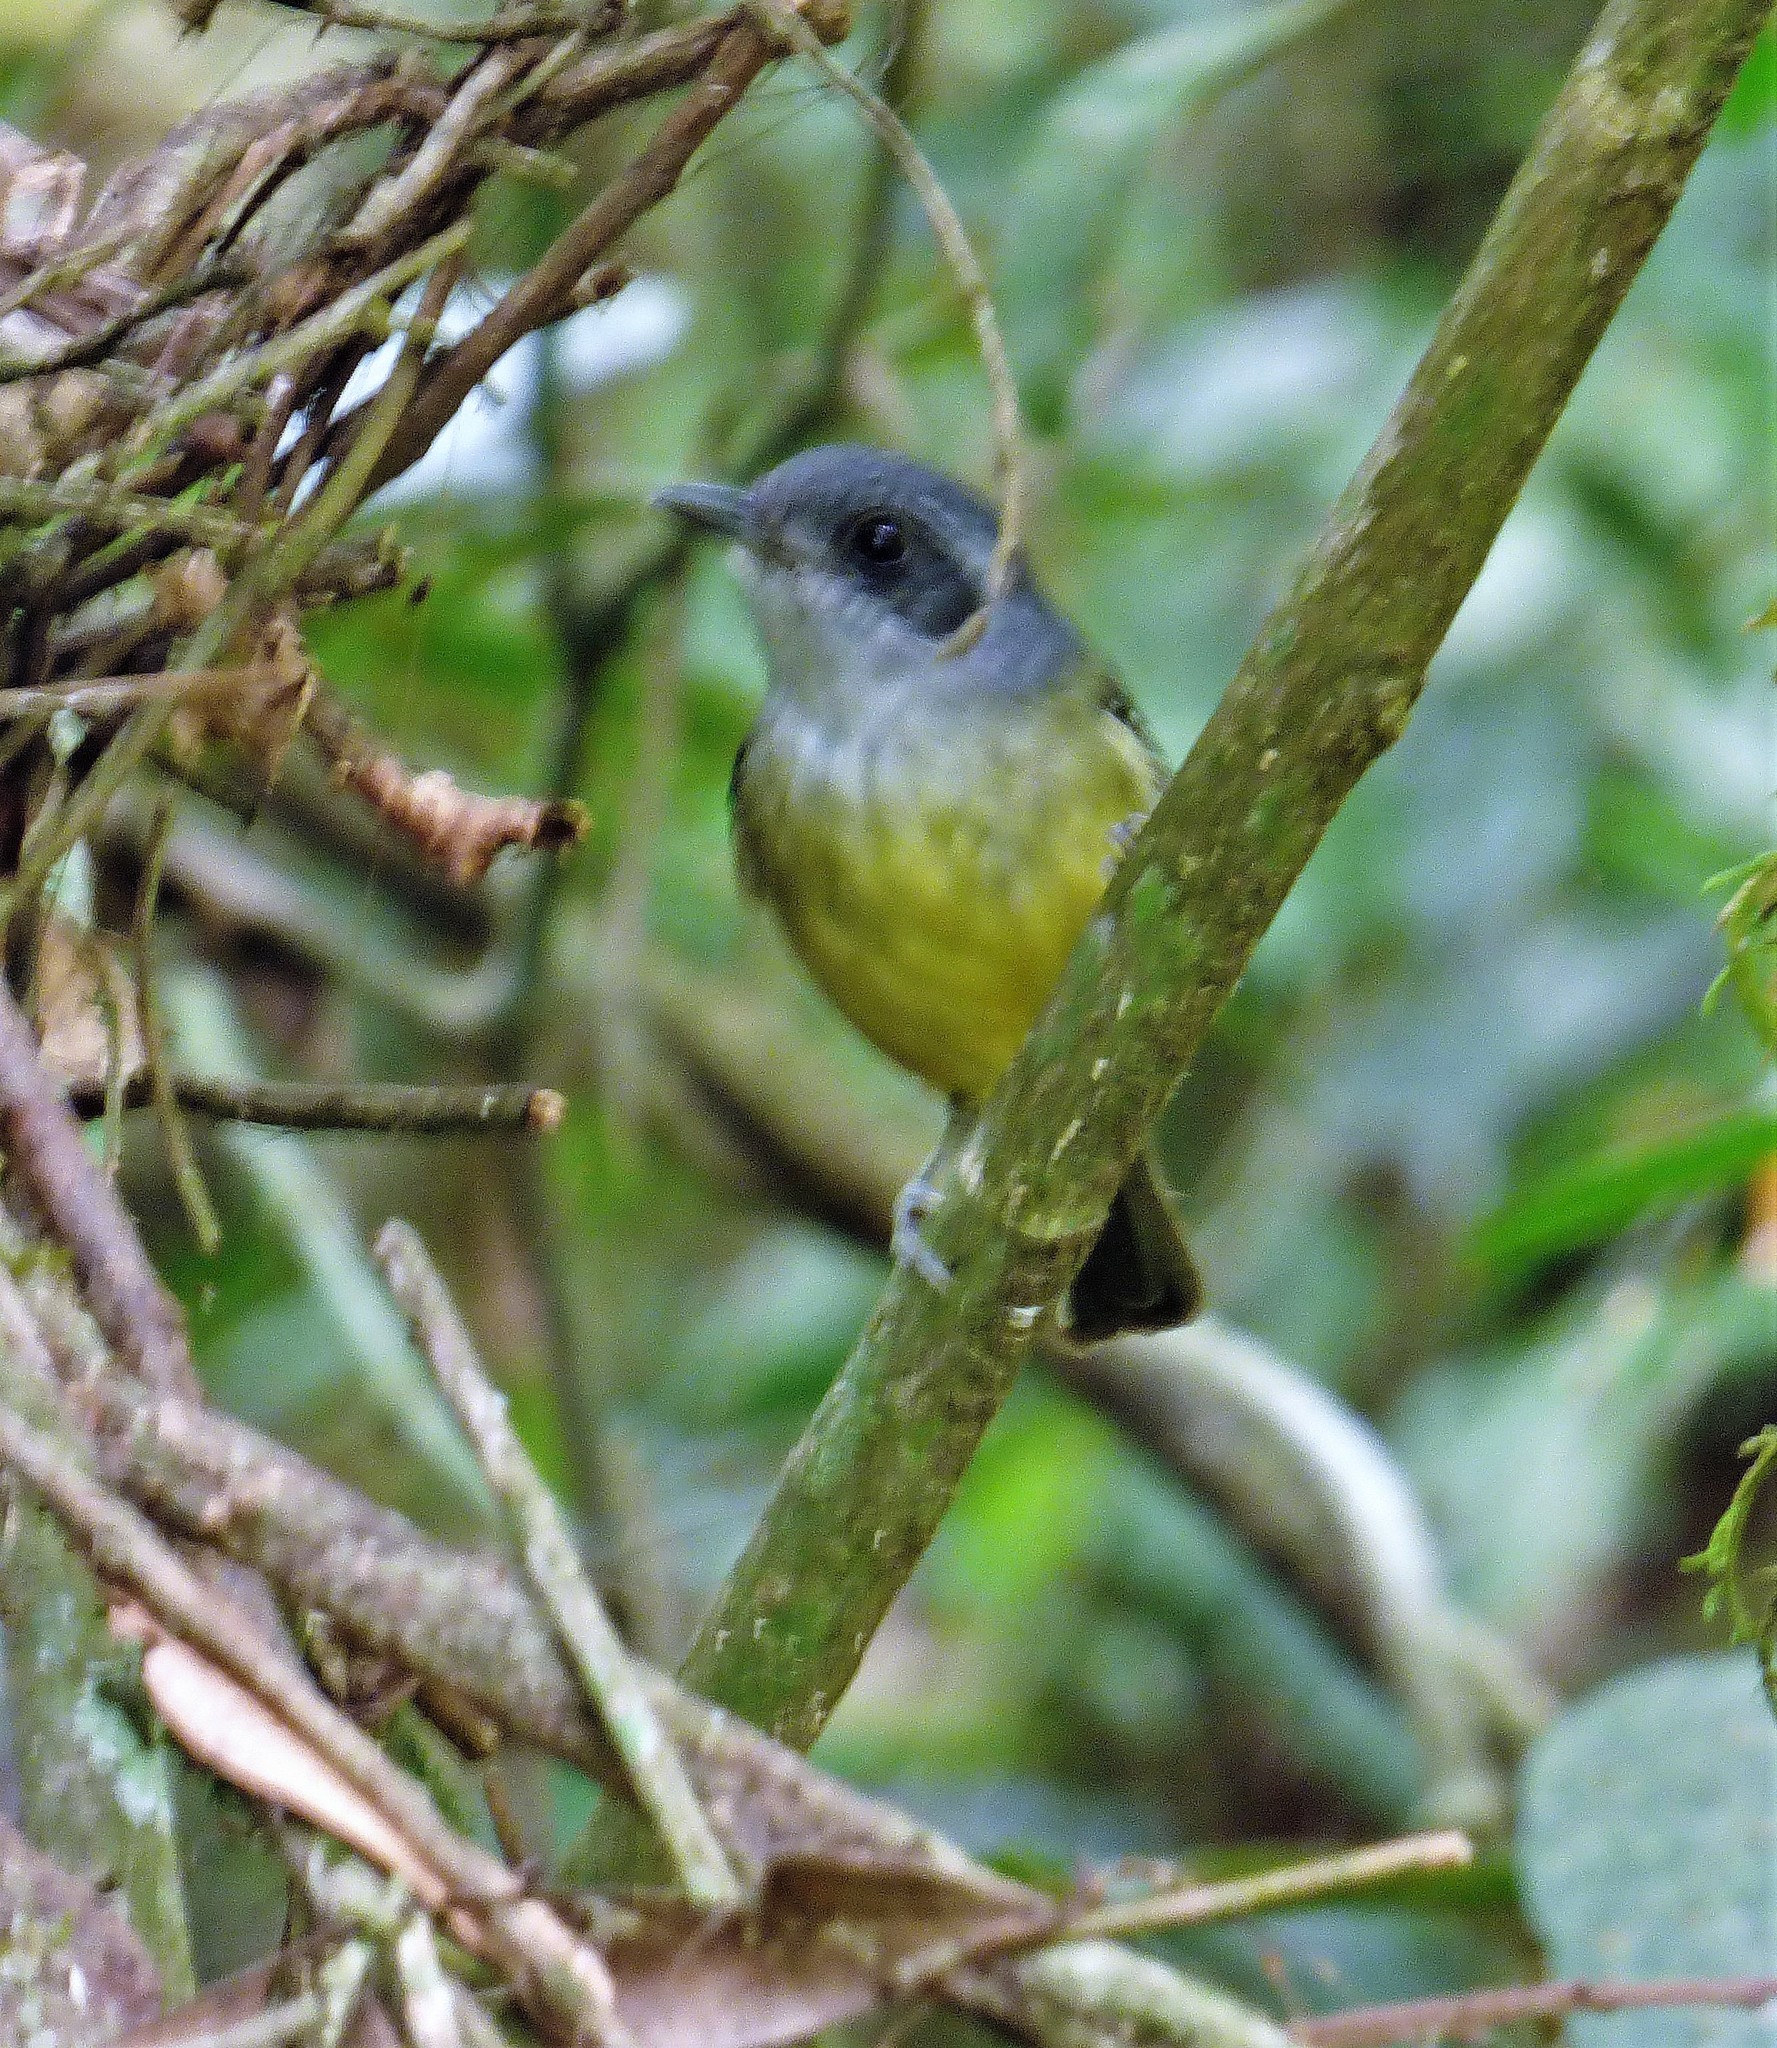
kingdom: Animalia
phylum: Chordata
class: Aves
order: Passeriformes
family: Thamnophilidae
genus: Dysithamnus
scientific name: Dysithamnus mentalis
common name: Plain antvireo
